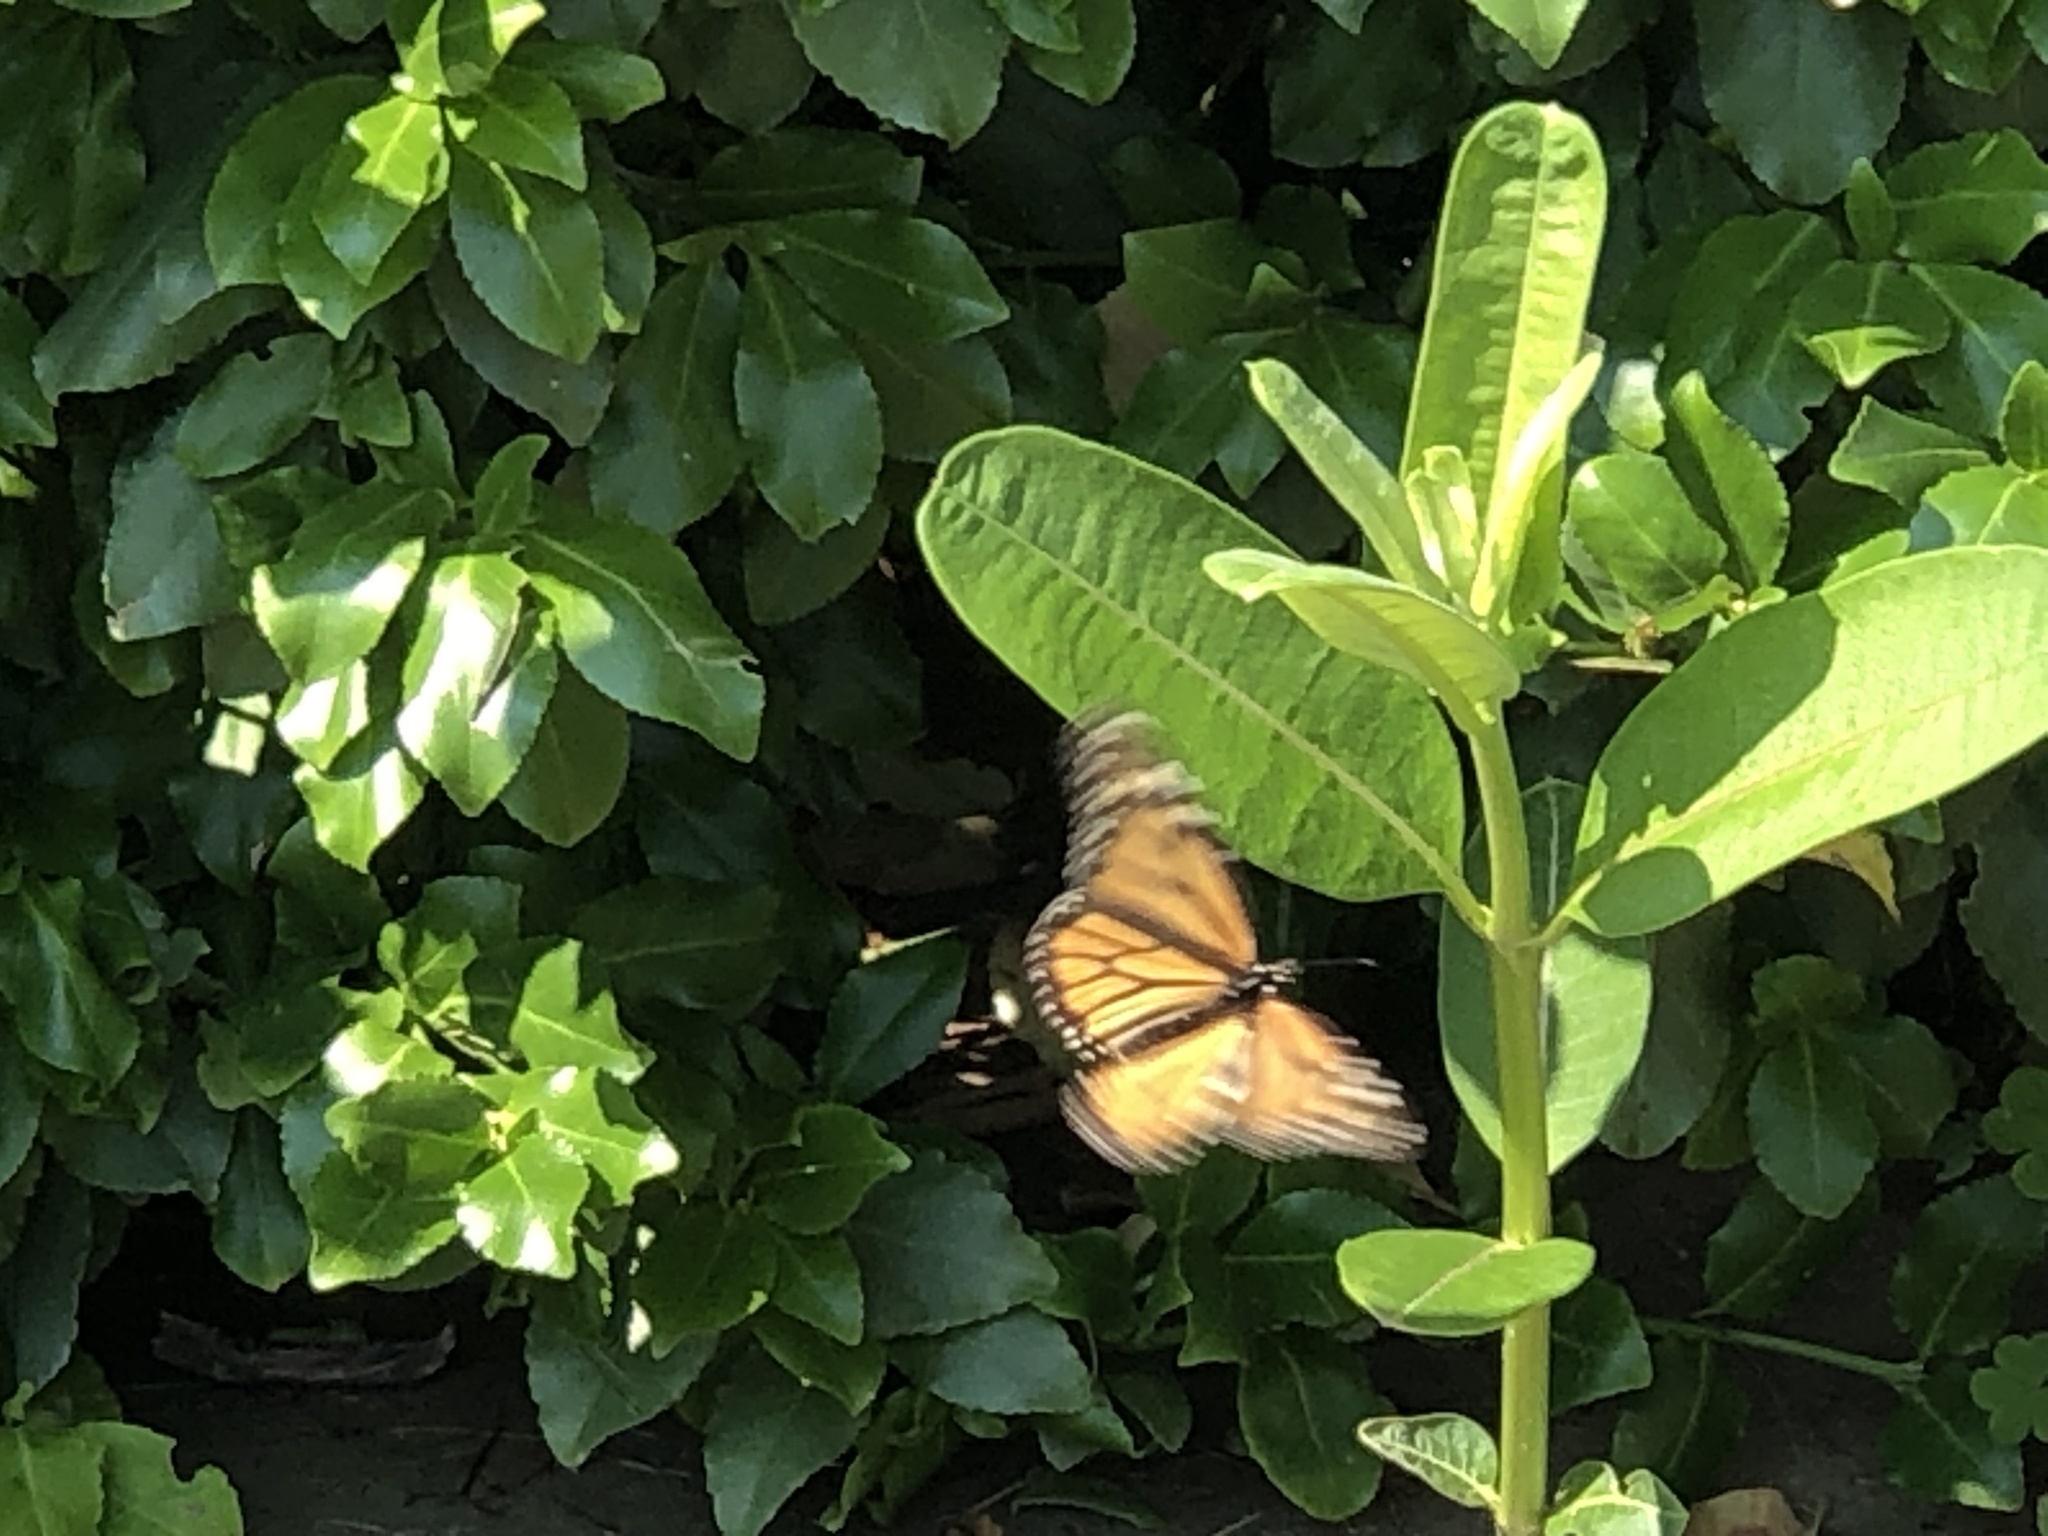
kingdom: Animalia
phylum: Arthropoda
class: Insecta
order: Lepidoptera
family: Nymphalidae
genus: Danaus
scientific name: Danaus plexippus
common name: Monarch
